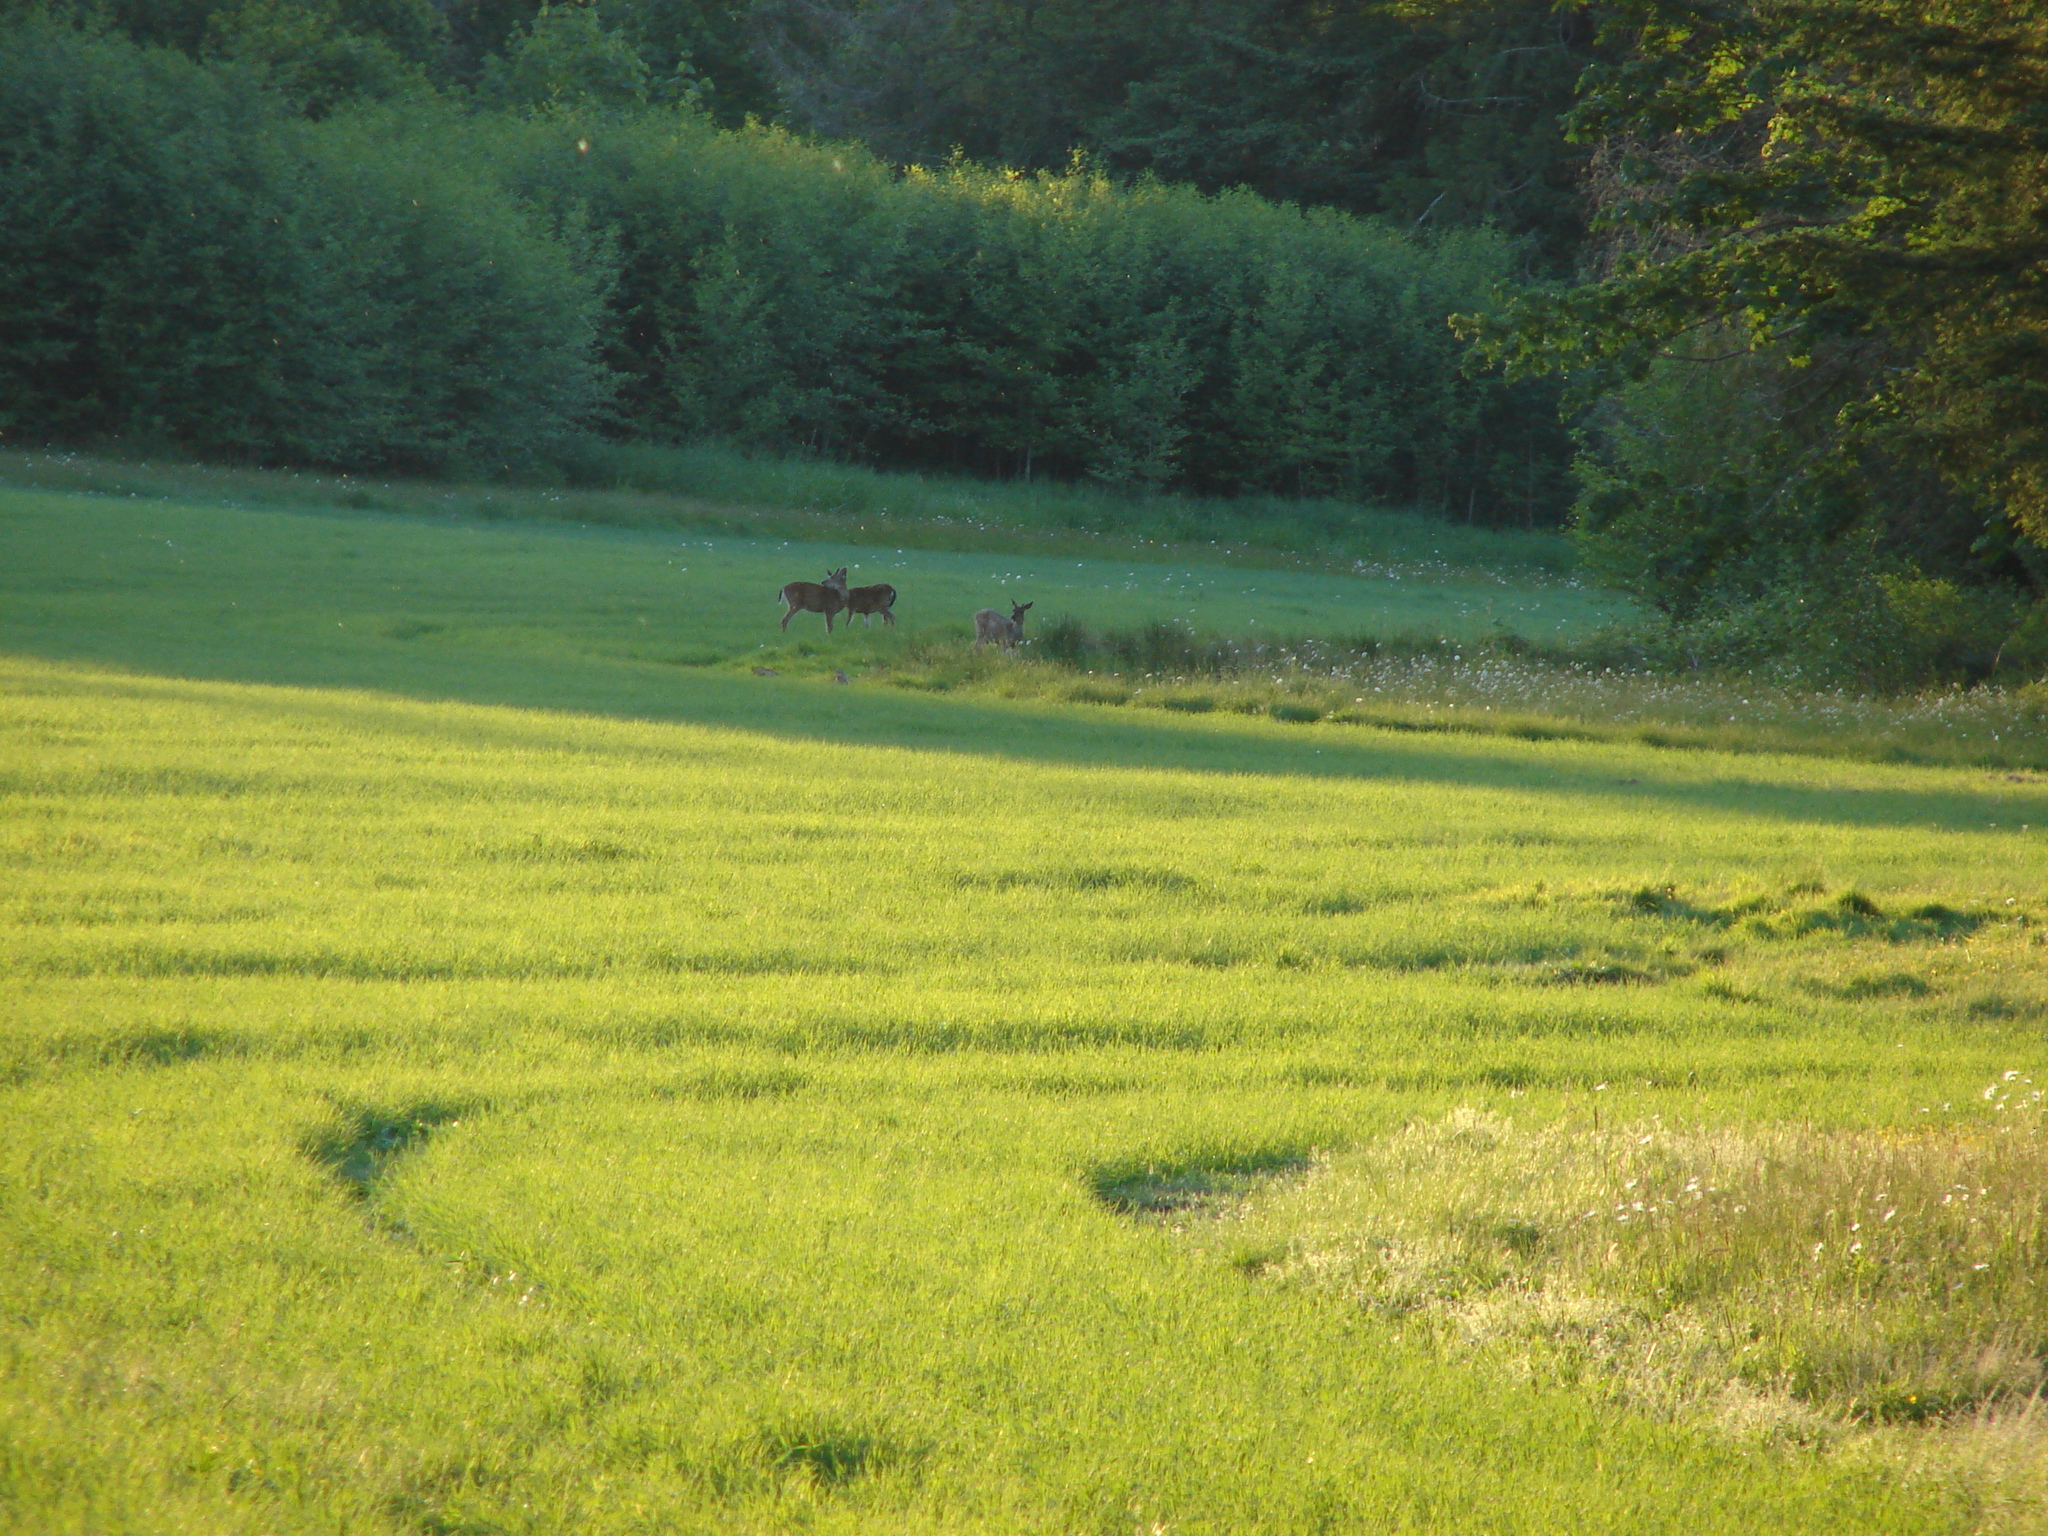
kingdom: Animalia
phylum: Chordata
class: Mammalia
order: Artiodactyla
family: Cervidae
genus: Odocoileus
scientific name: Odocoileus hemionus
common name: Mule deer
